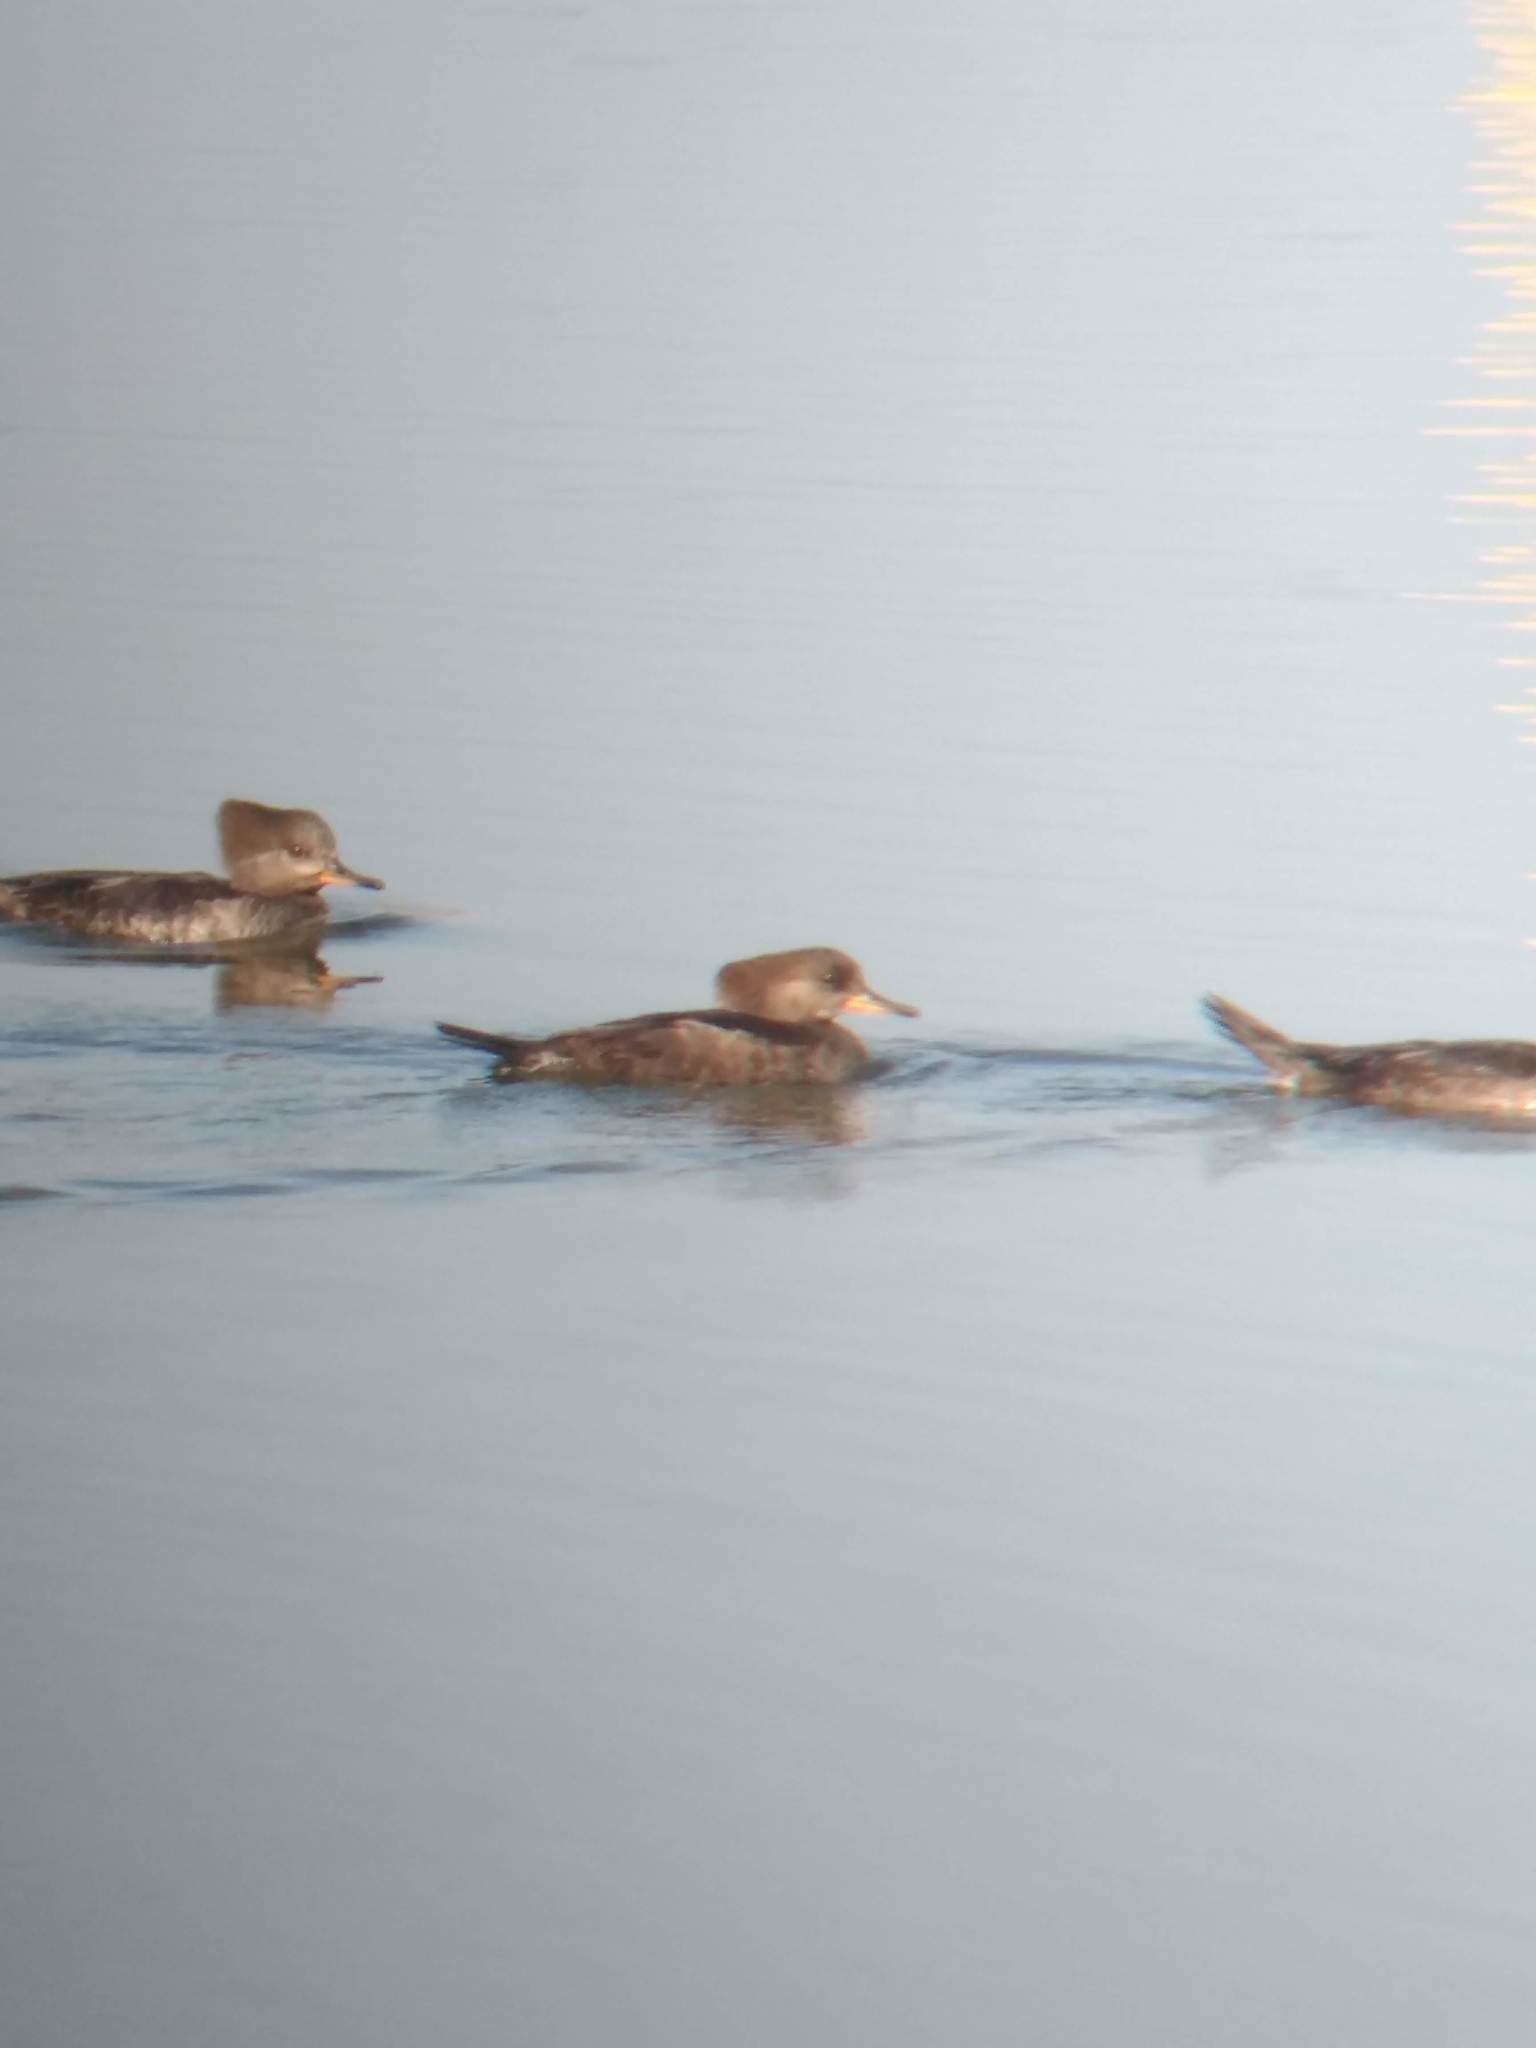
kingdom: Animalia
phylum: Chordata
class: Aves
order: Anseriformes
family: Anatidae
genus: Lophodytes
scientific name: Lophodytes cucullatus
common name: Hooded merganser
